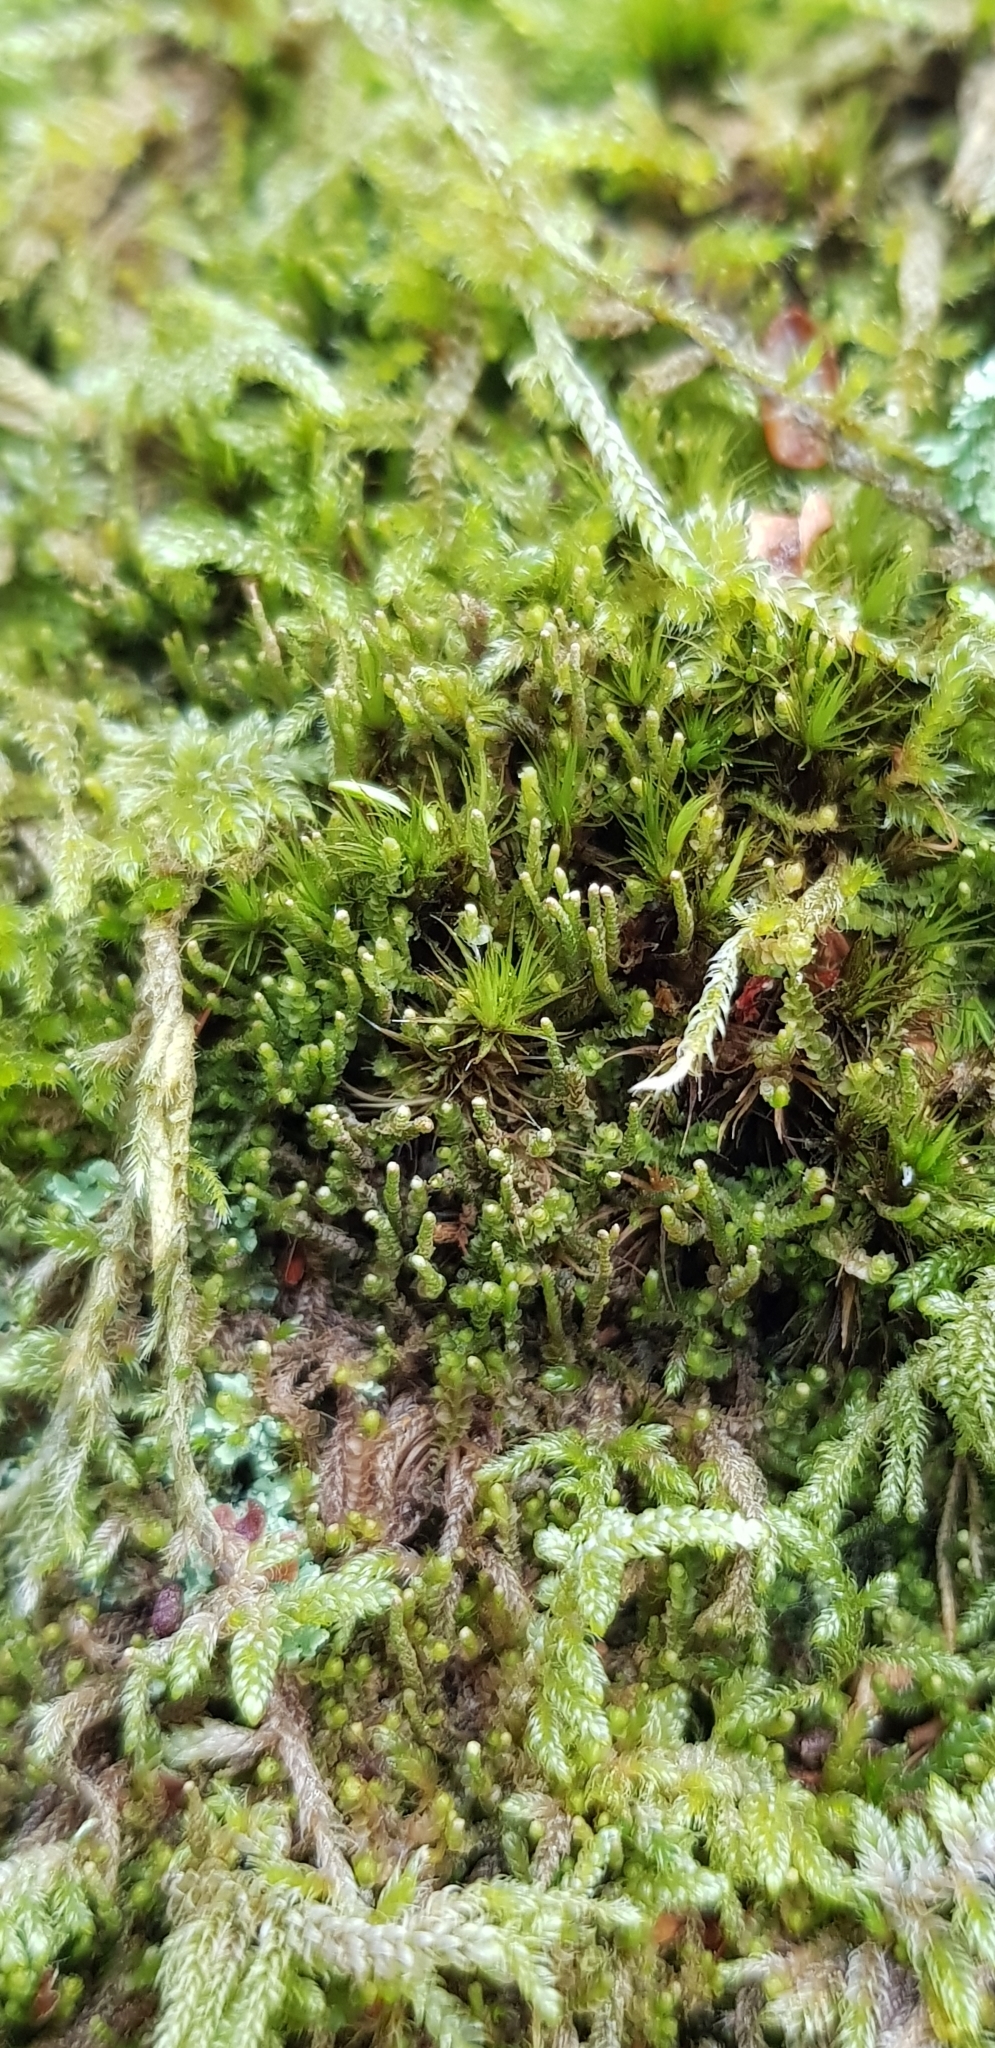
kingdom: Plantae
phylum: Marchantiophyta
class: Jungermanniopsida
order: Jungermanniales
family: Anastrophyllaceae
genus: Neoorthocaulis
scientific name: Neoorthocaulis attenuatus
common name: Trunk pawwort
